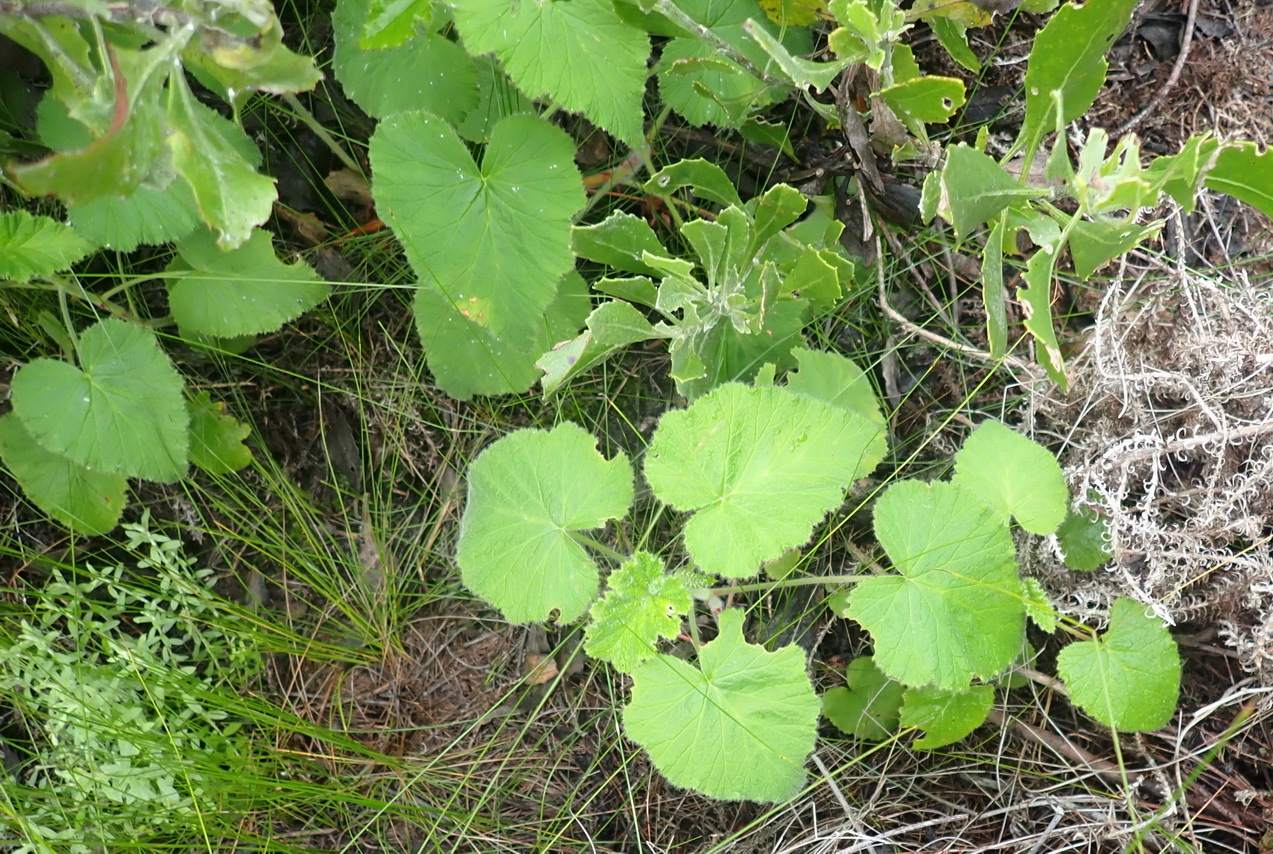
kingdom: Plantae
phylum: Tracheophyta
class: Magnoliopsida
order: Geraniales
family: Geraniaceae
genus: Pelargonium
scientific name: Pelargonium cordifolium
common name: Heart-leaf pelargonium
